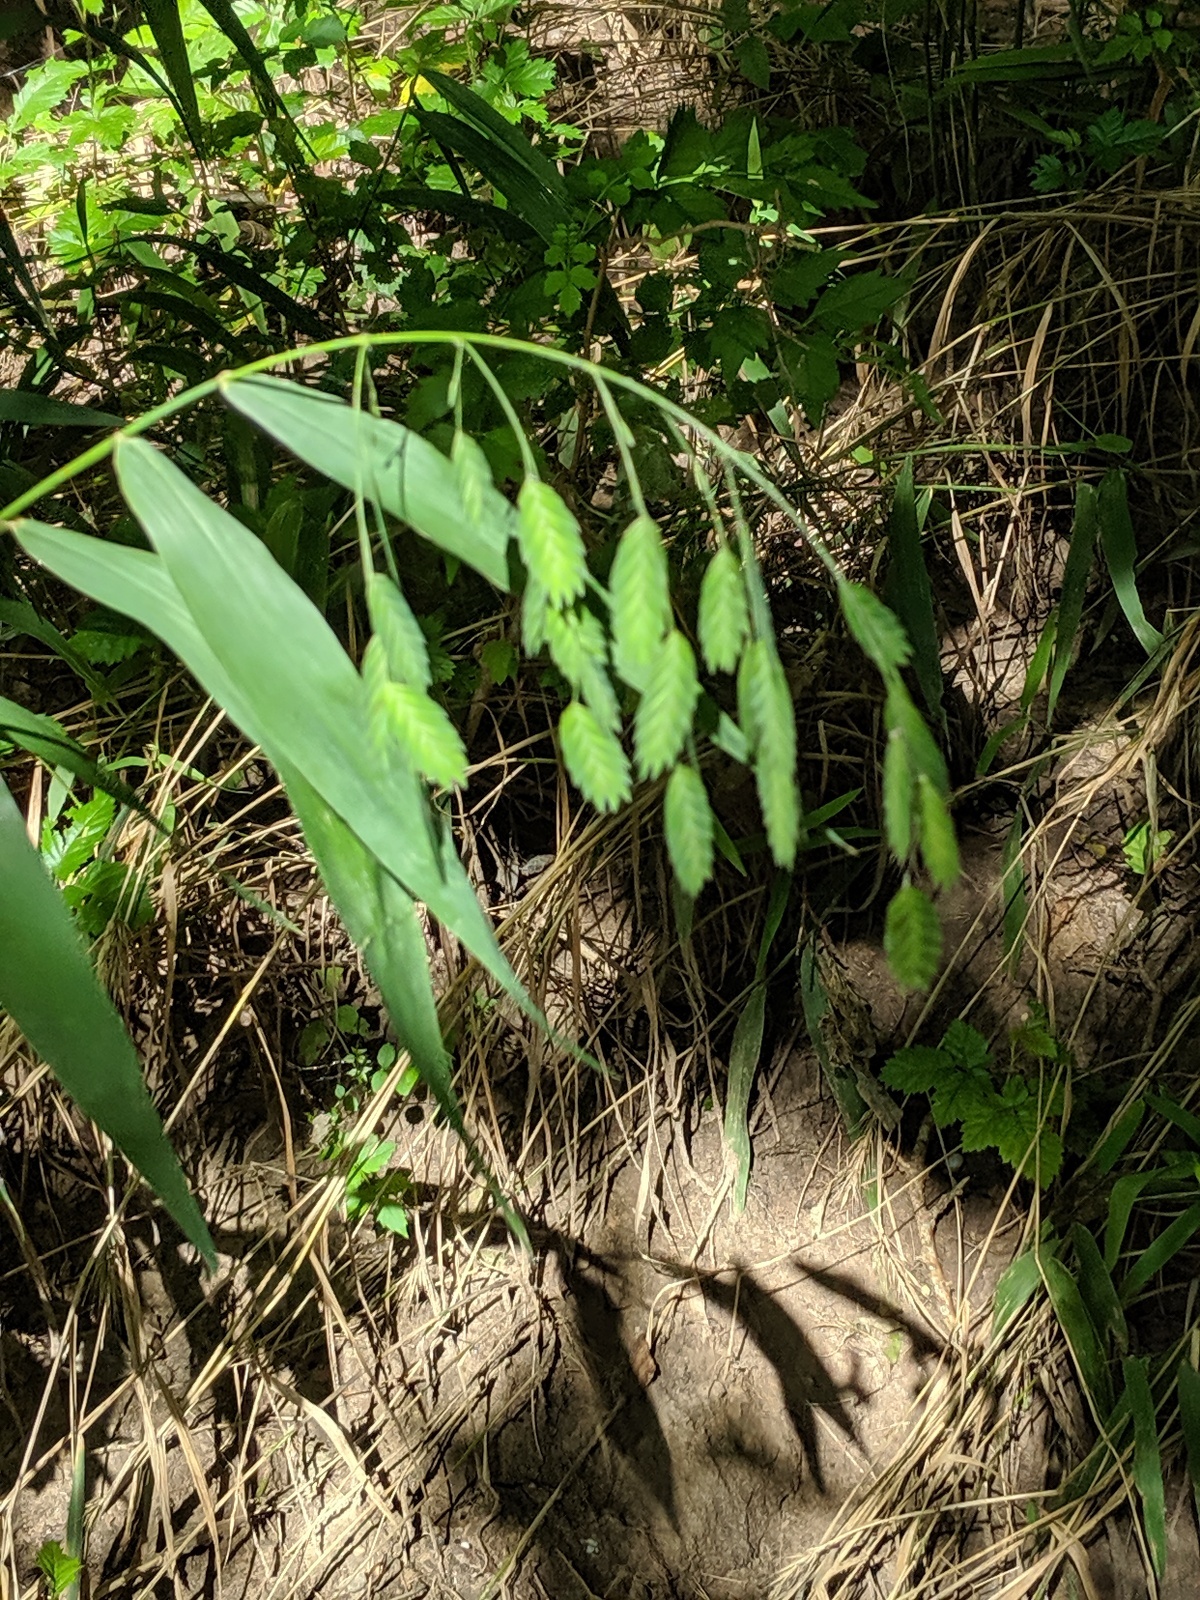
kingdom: Plantae
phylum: Tracheophyta
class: Liliopsida
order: Poales
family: Poaceae
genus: Chasmanthium
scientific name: Chasmanthium latifolium
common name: Broad-leaved chasmanthium
